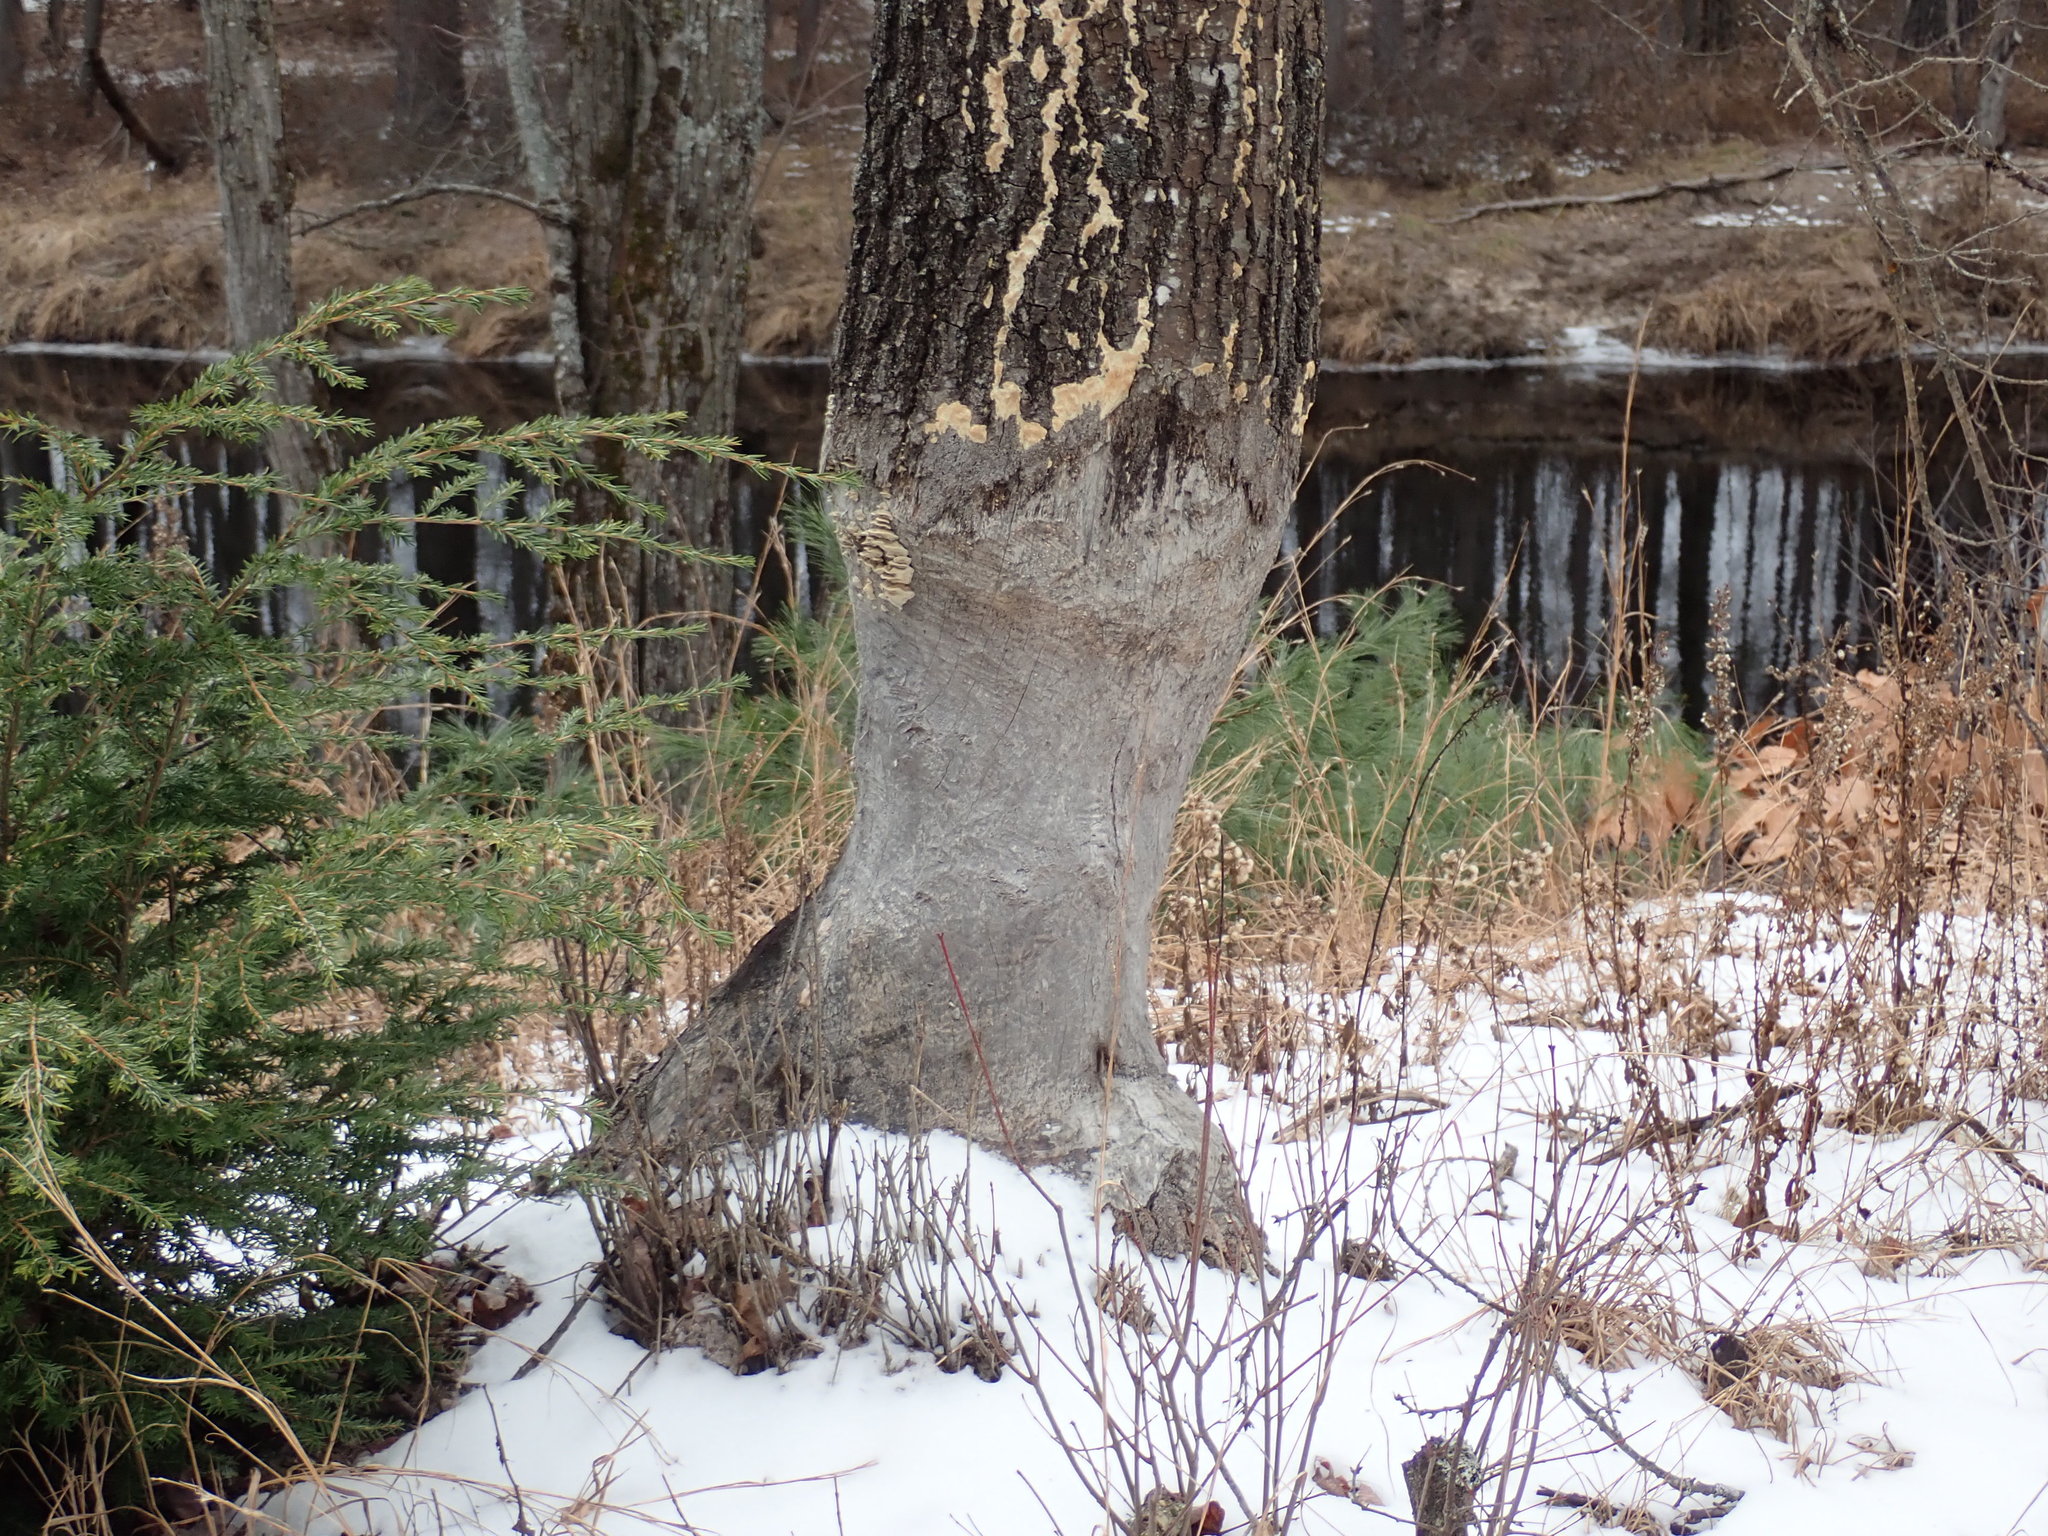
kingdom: Animalia
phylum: Chordata
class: Mammalia
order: Rodentia
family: Castoridae
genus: Castor
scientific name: Castor canadensis
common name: American beaver
